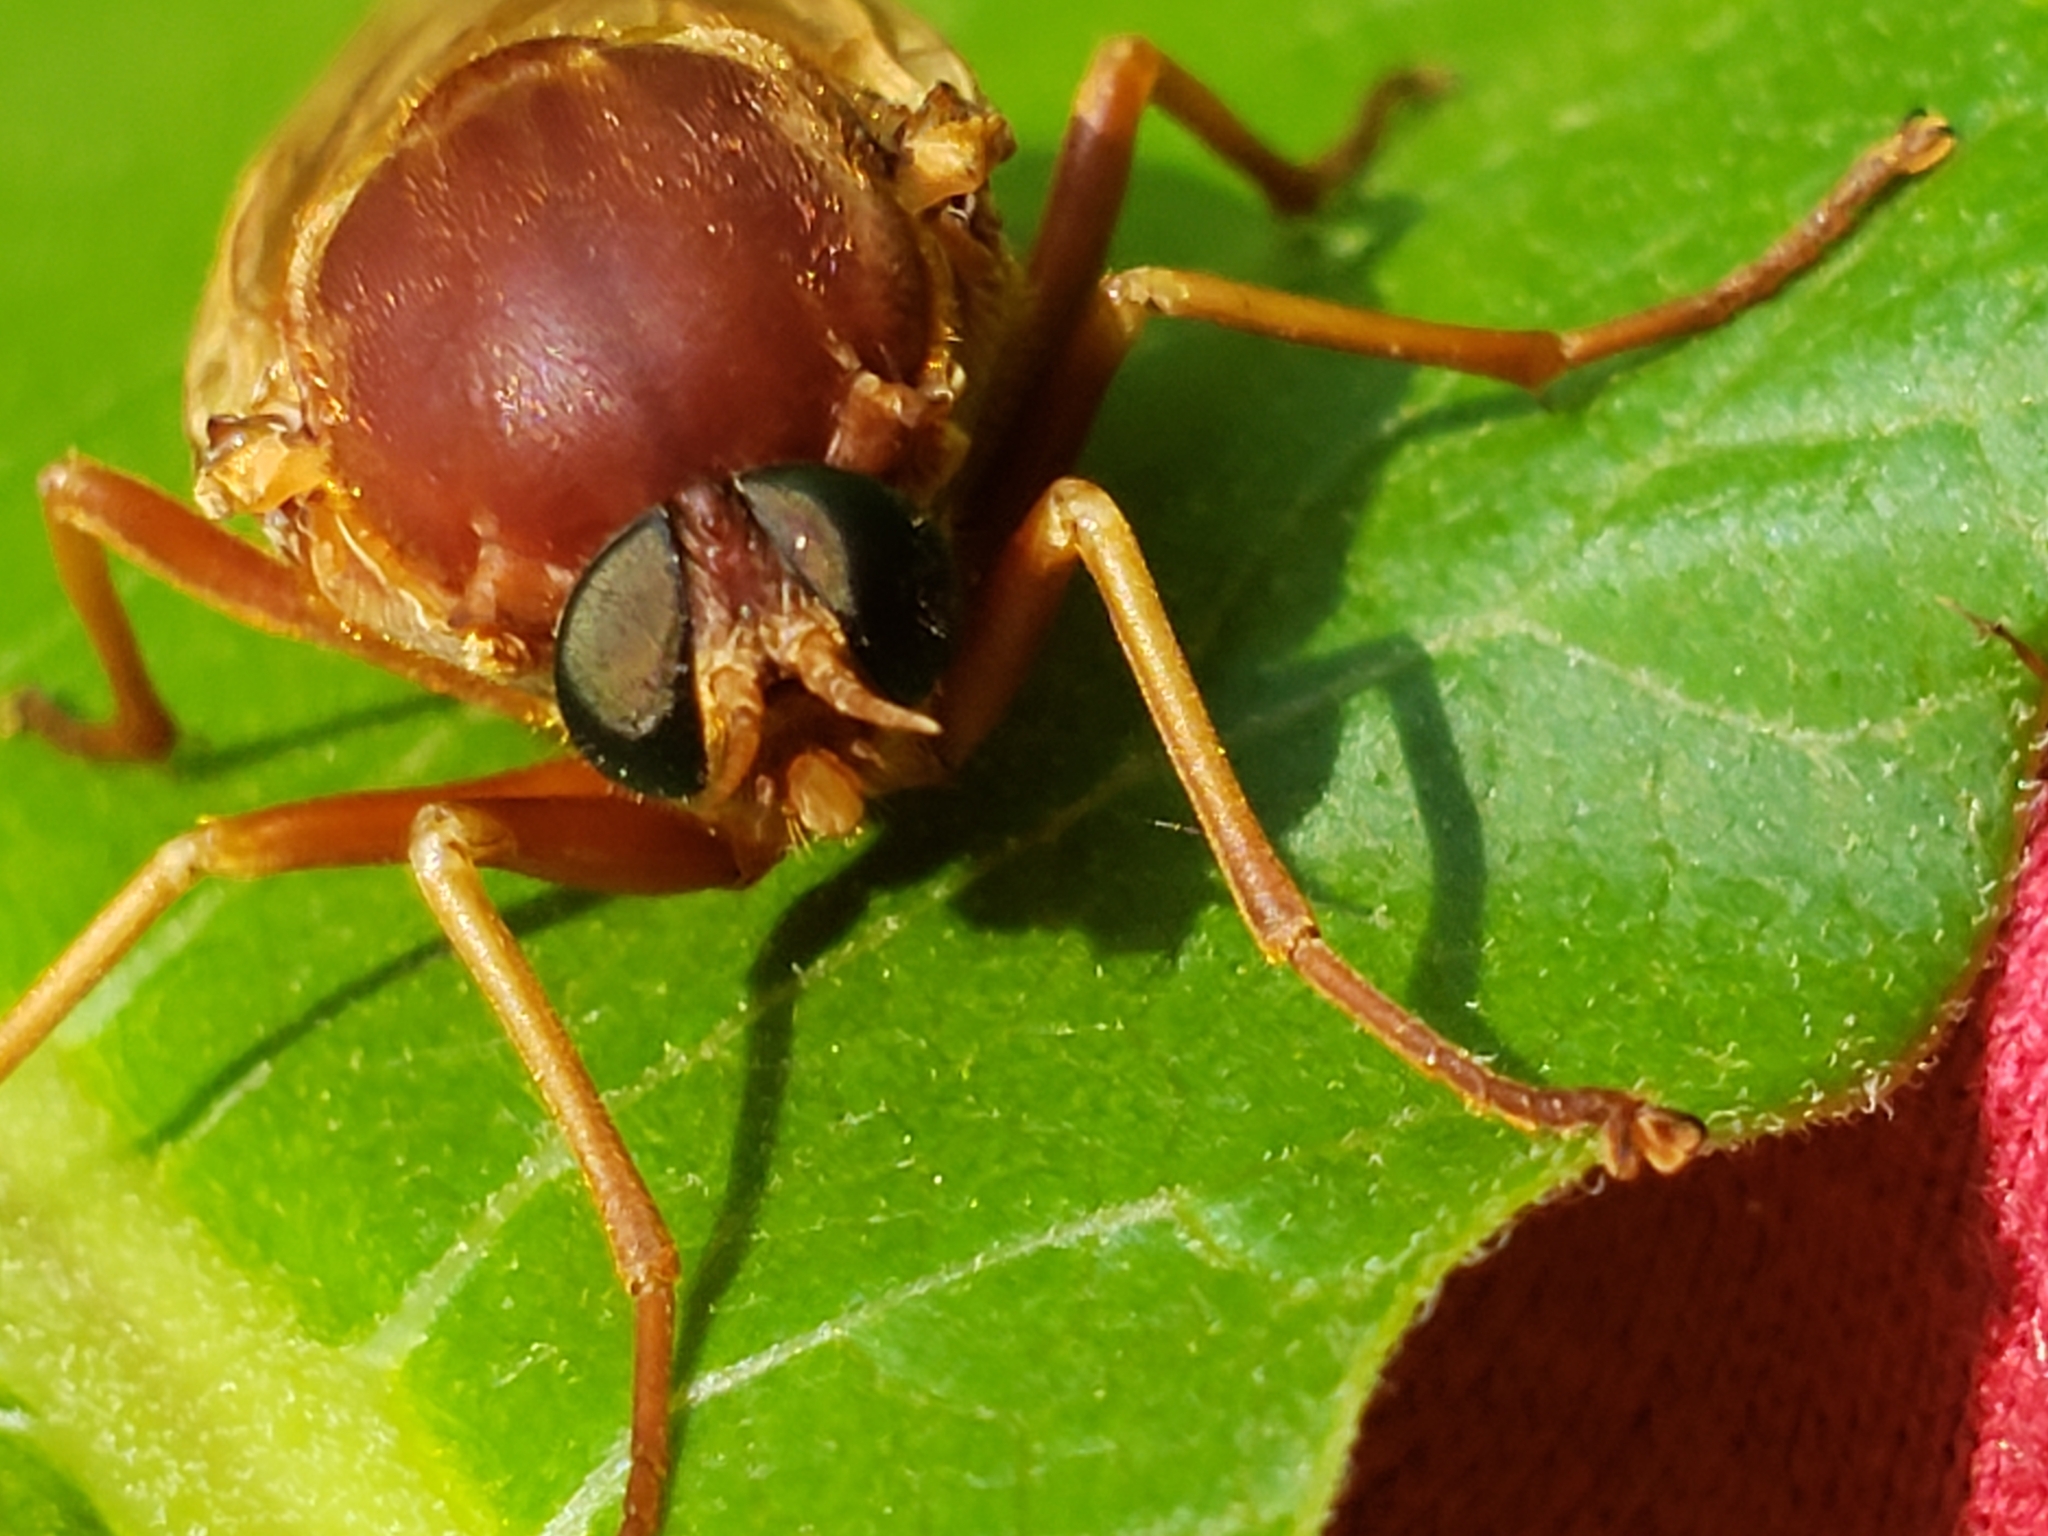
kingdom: Animalia
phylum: Arthropoda
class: Insecta
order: Diptera
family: Xylophagidae
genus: Coenomyia
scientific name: Coenomyia ferruginea
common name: Stink fly
